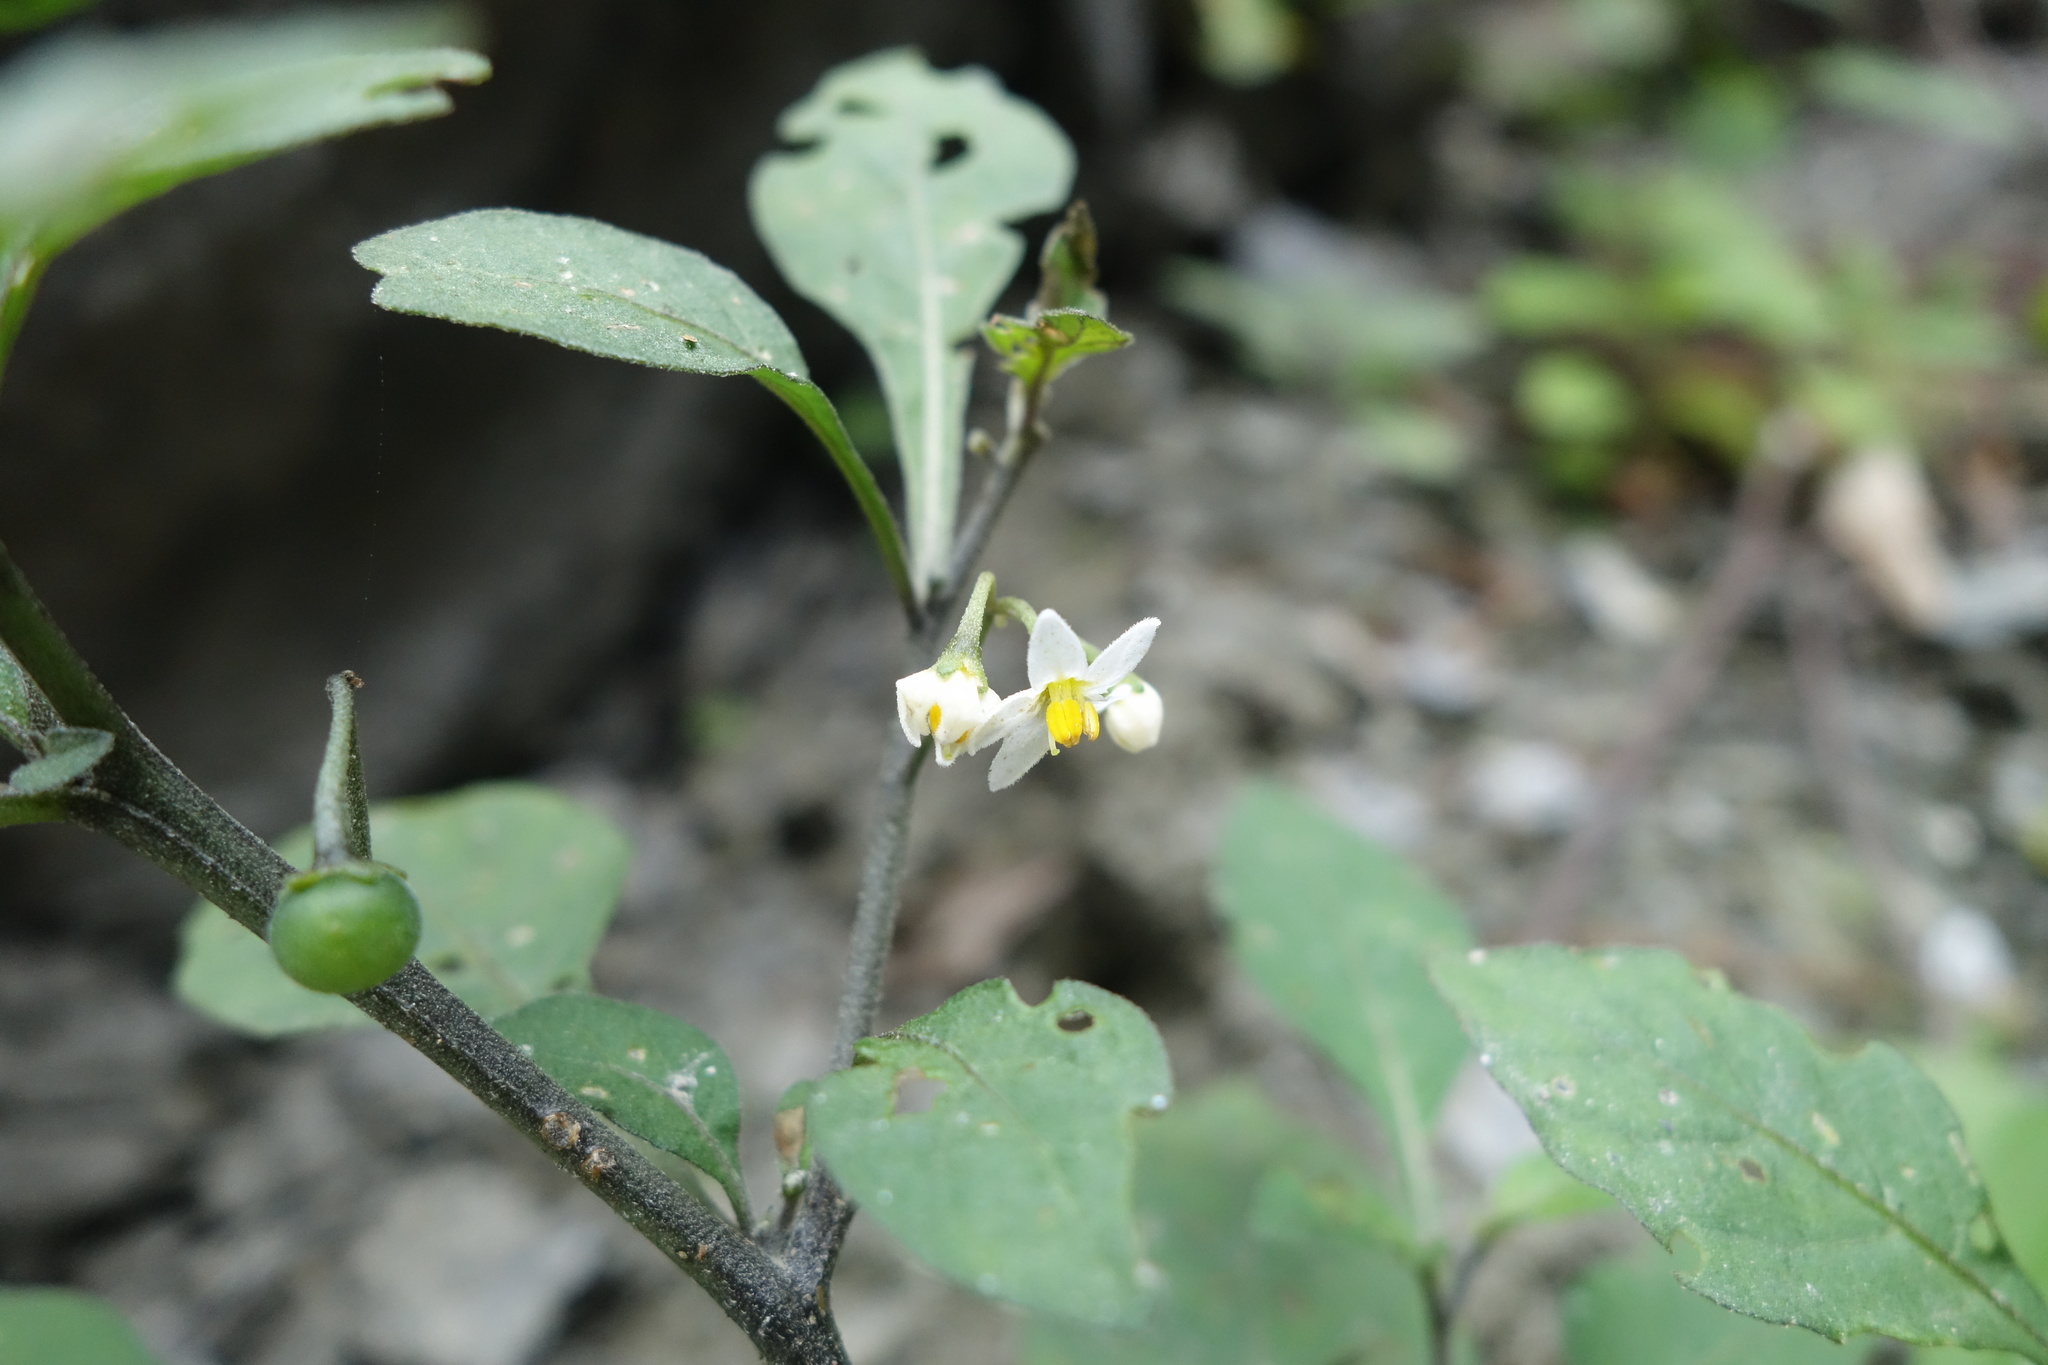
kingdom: Plantae
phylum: Tracheophyta
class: Magnoliopsida
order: Solanales
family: Solanaceae
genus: Solanum
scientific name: Solanum nigrum
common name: Black nightshade
